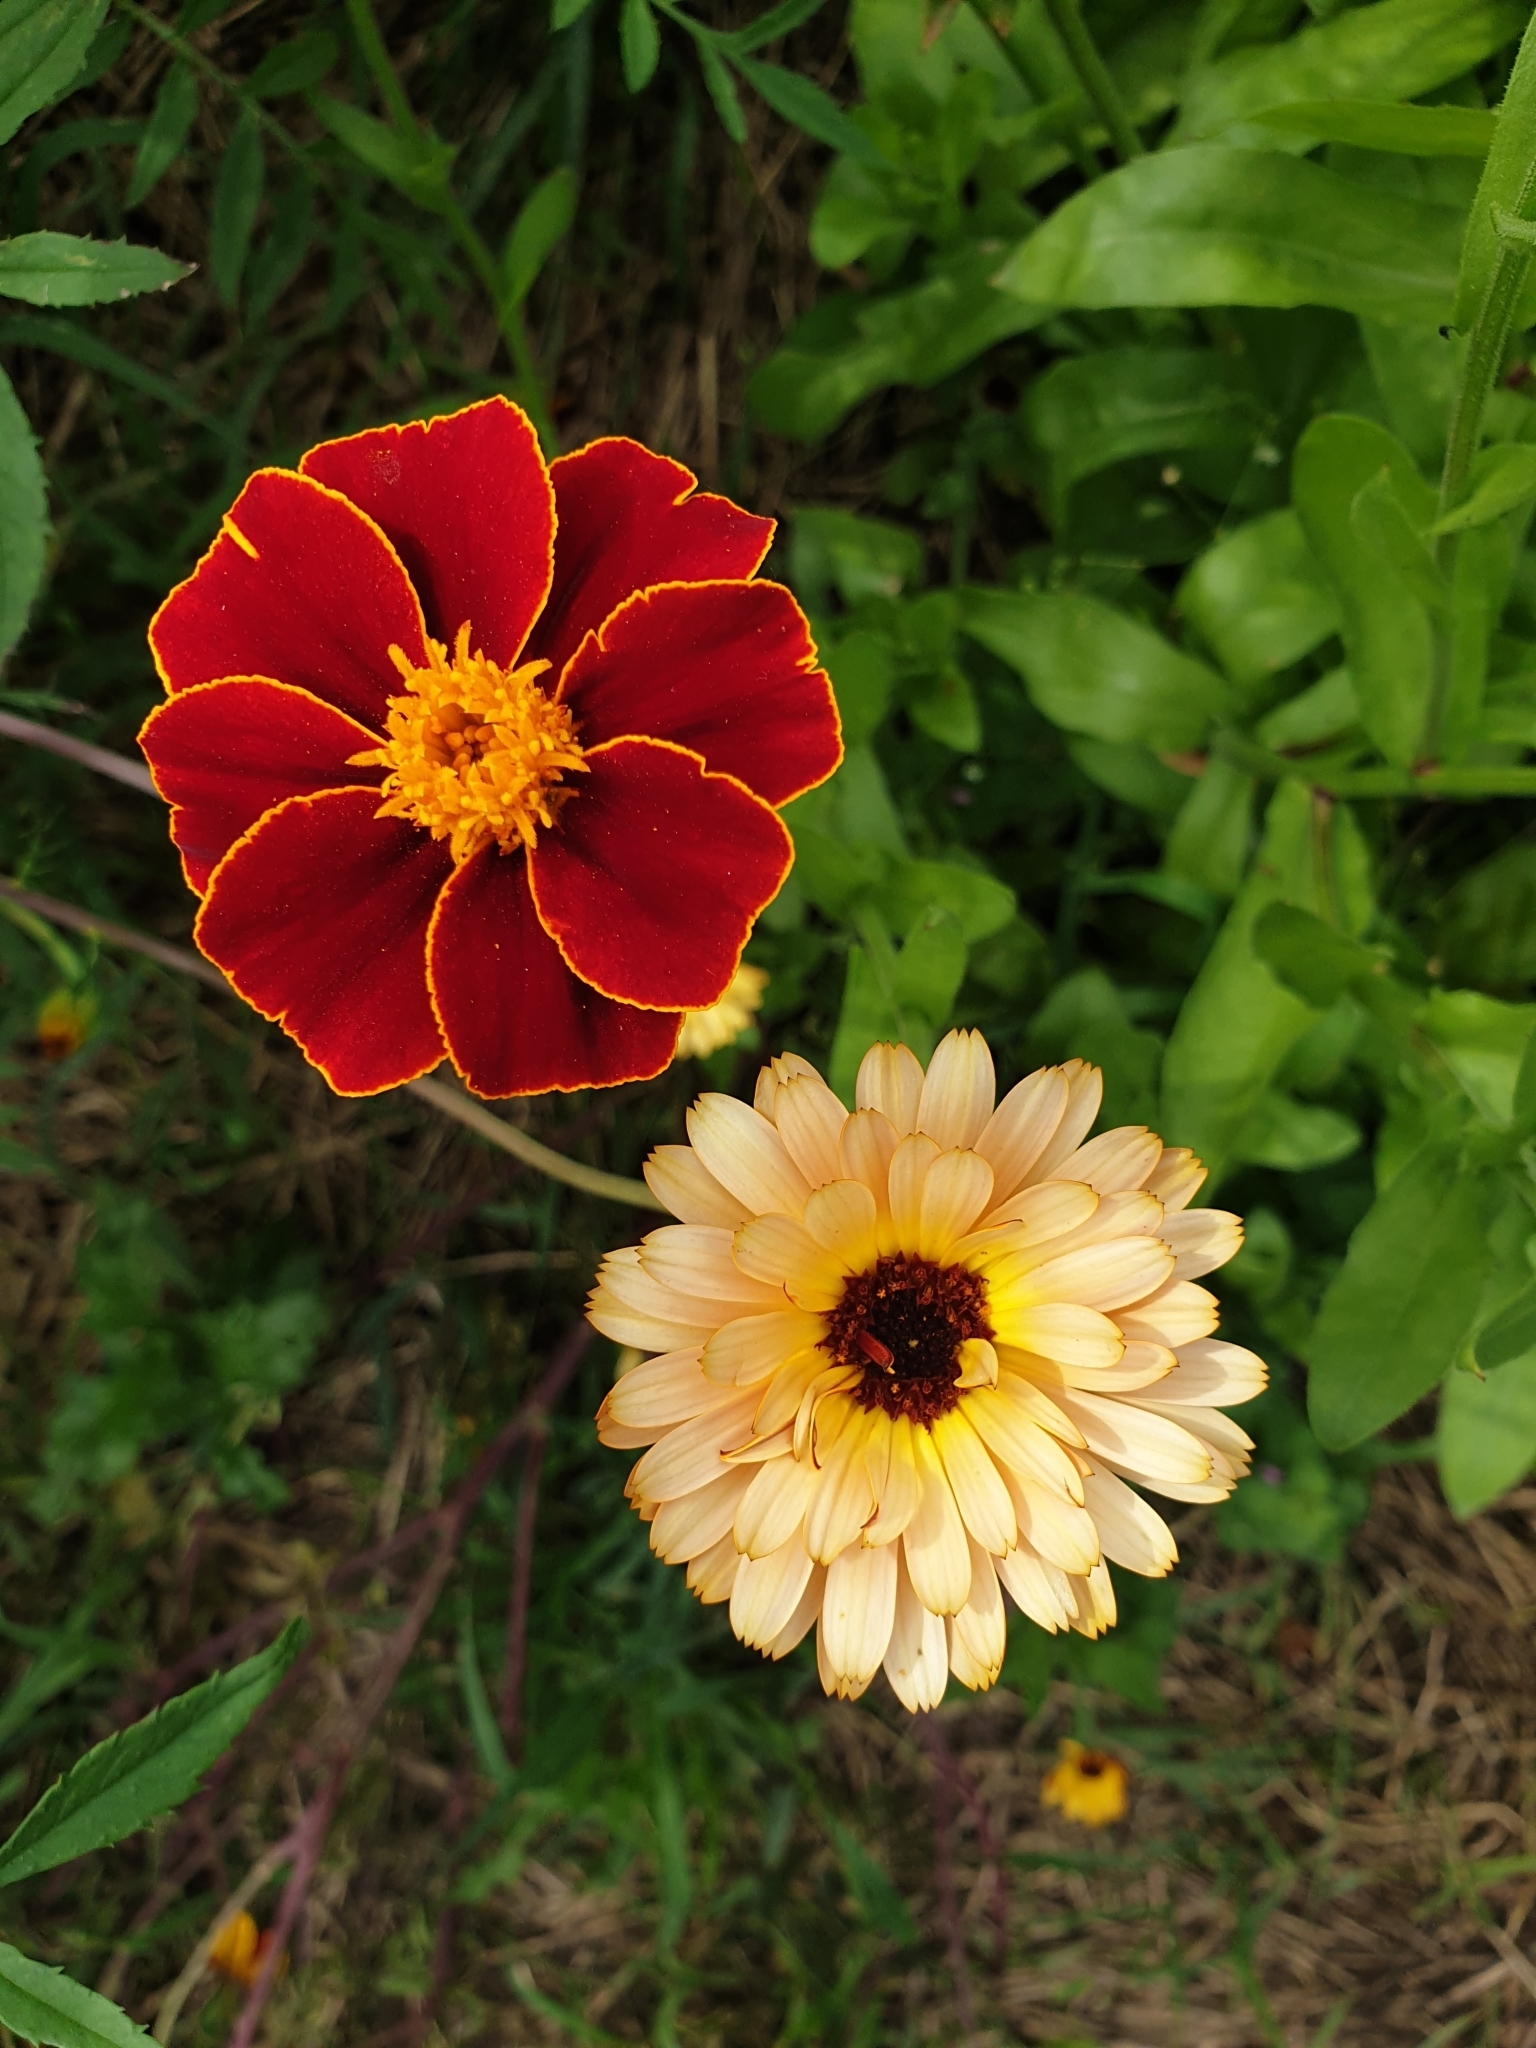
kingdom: Plantae
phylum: Tracheophyta
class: Magnoliopsida
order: Asterales
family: Asteraceae
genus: Calendula
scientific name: Calendula officinalis
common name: Pot marigold
